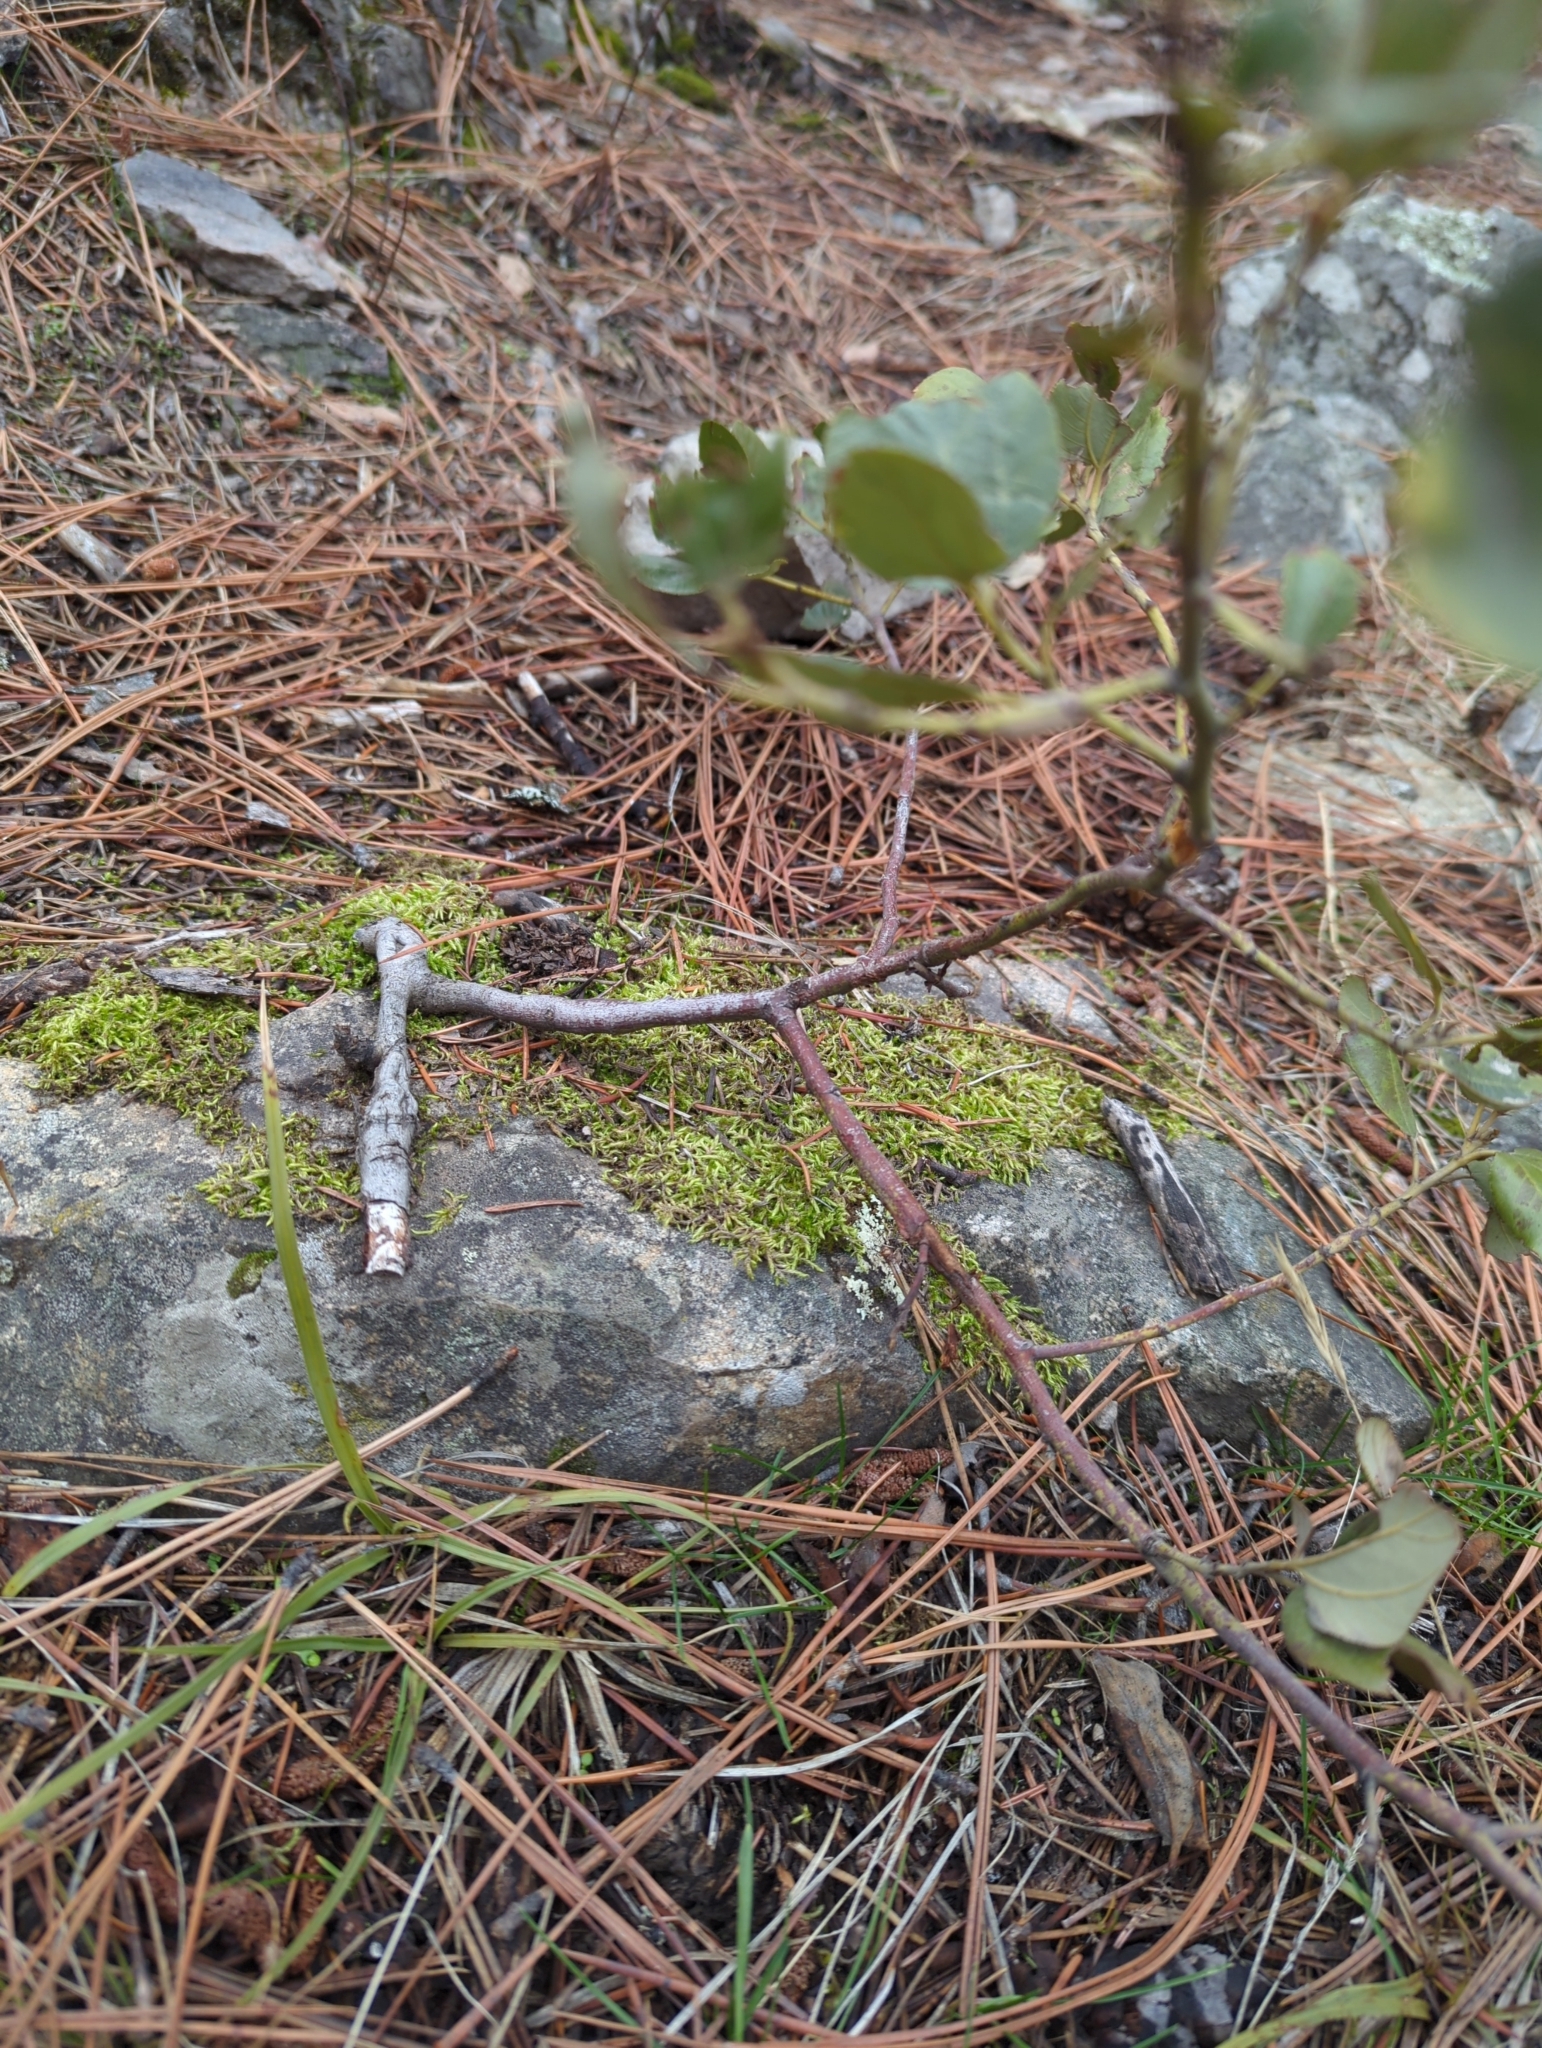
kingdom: Plantae
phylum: Tracheophyta
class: Magnoliopsida
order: Rosales
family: Rhamnaceae
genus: Ceanothus
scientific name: Ceanothus velutinus
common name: Snowbrush
